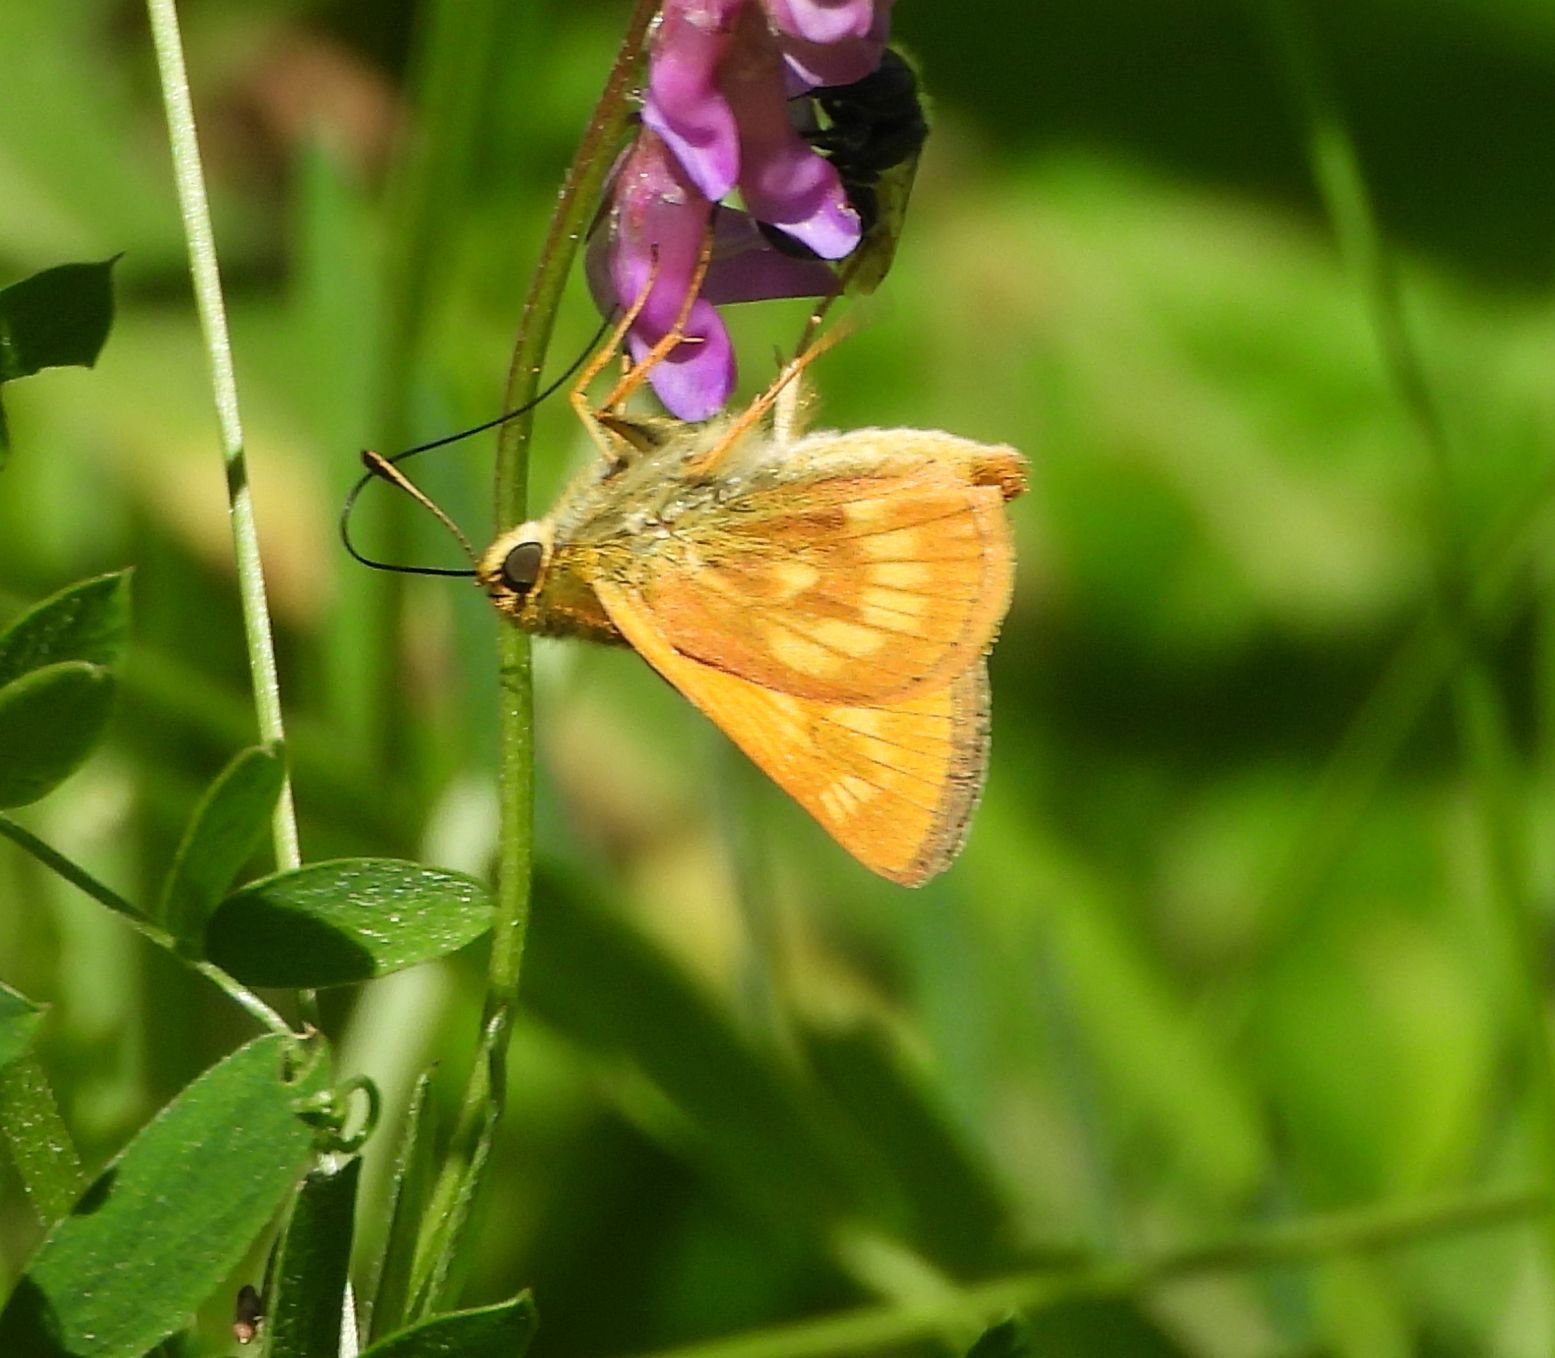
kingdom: Animalia
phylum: Arthropoda
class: Insecta
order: Lepidoptera
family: Hesperiidae
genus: Polites
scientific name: Polites mystic
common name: Long dash
